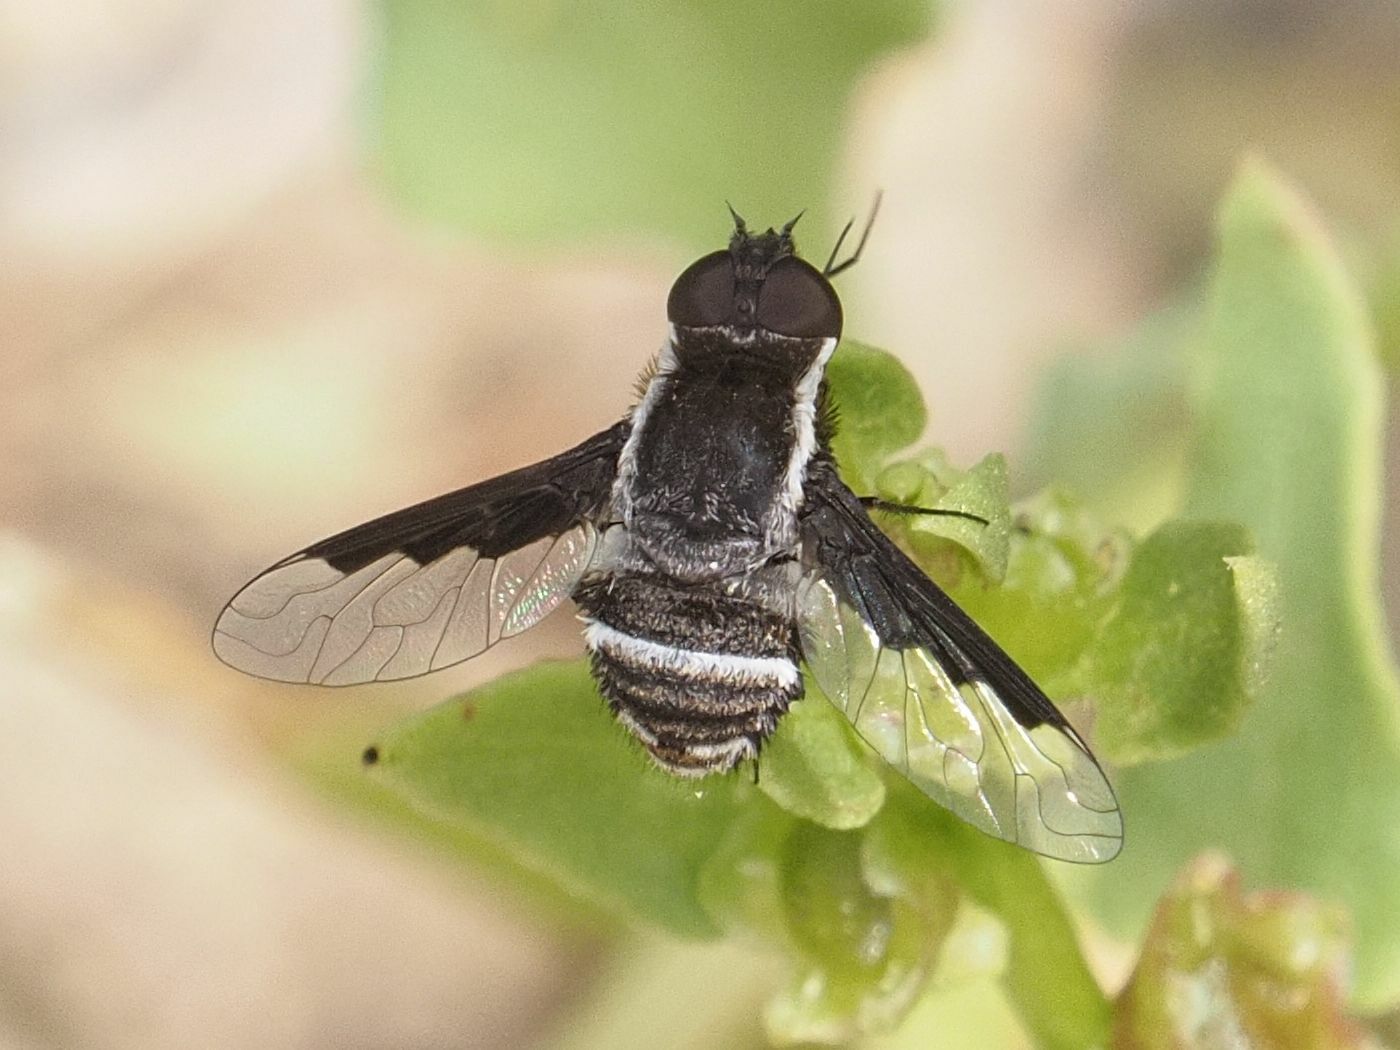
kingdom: Animalia
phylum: Arthropoda
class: Insecta
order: Diptera
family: Bombyliidae
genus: Exhyalanthrax
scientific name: Exhyalanthrax canarionae
